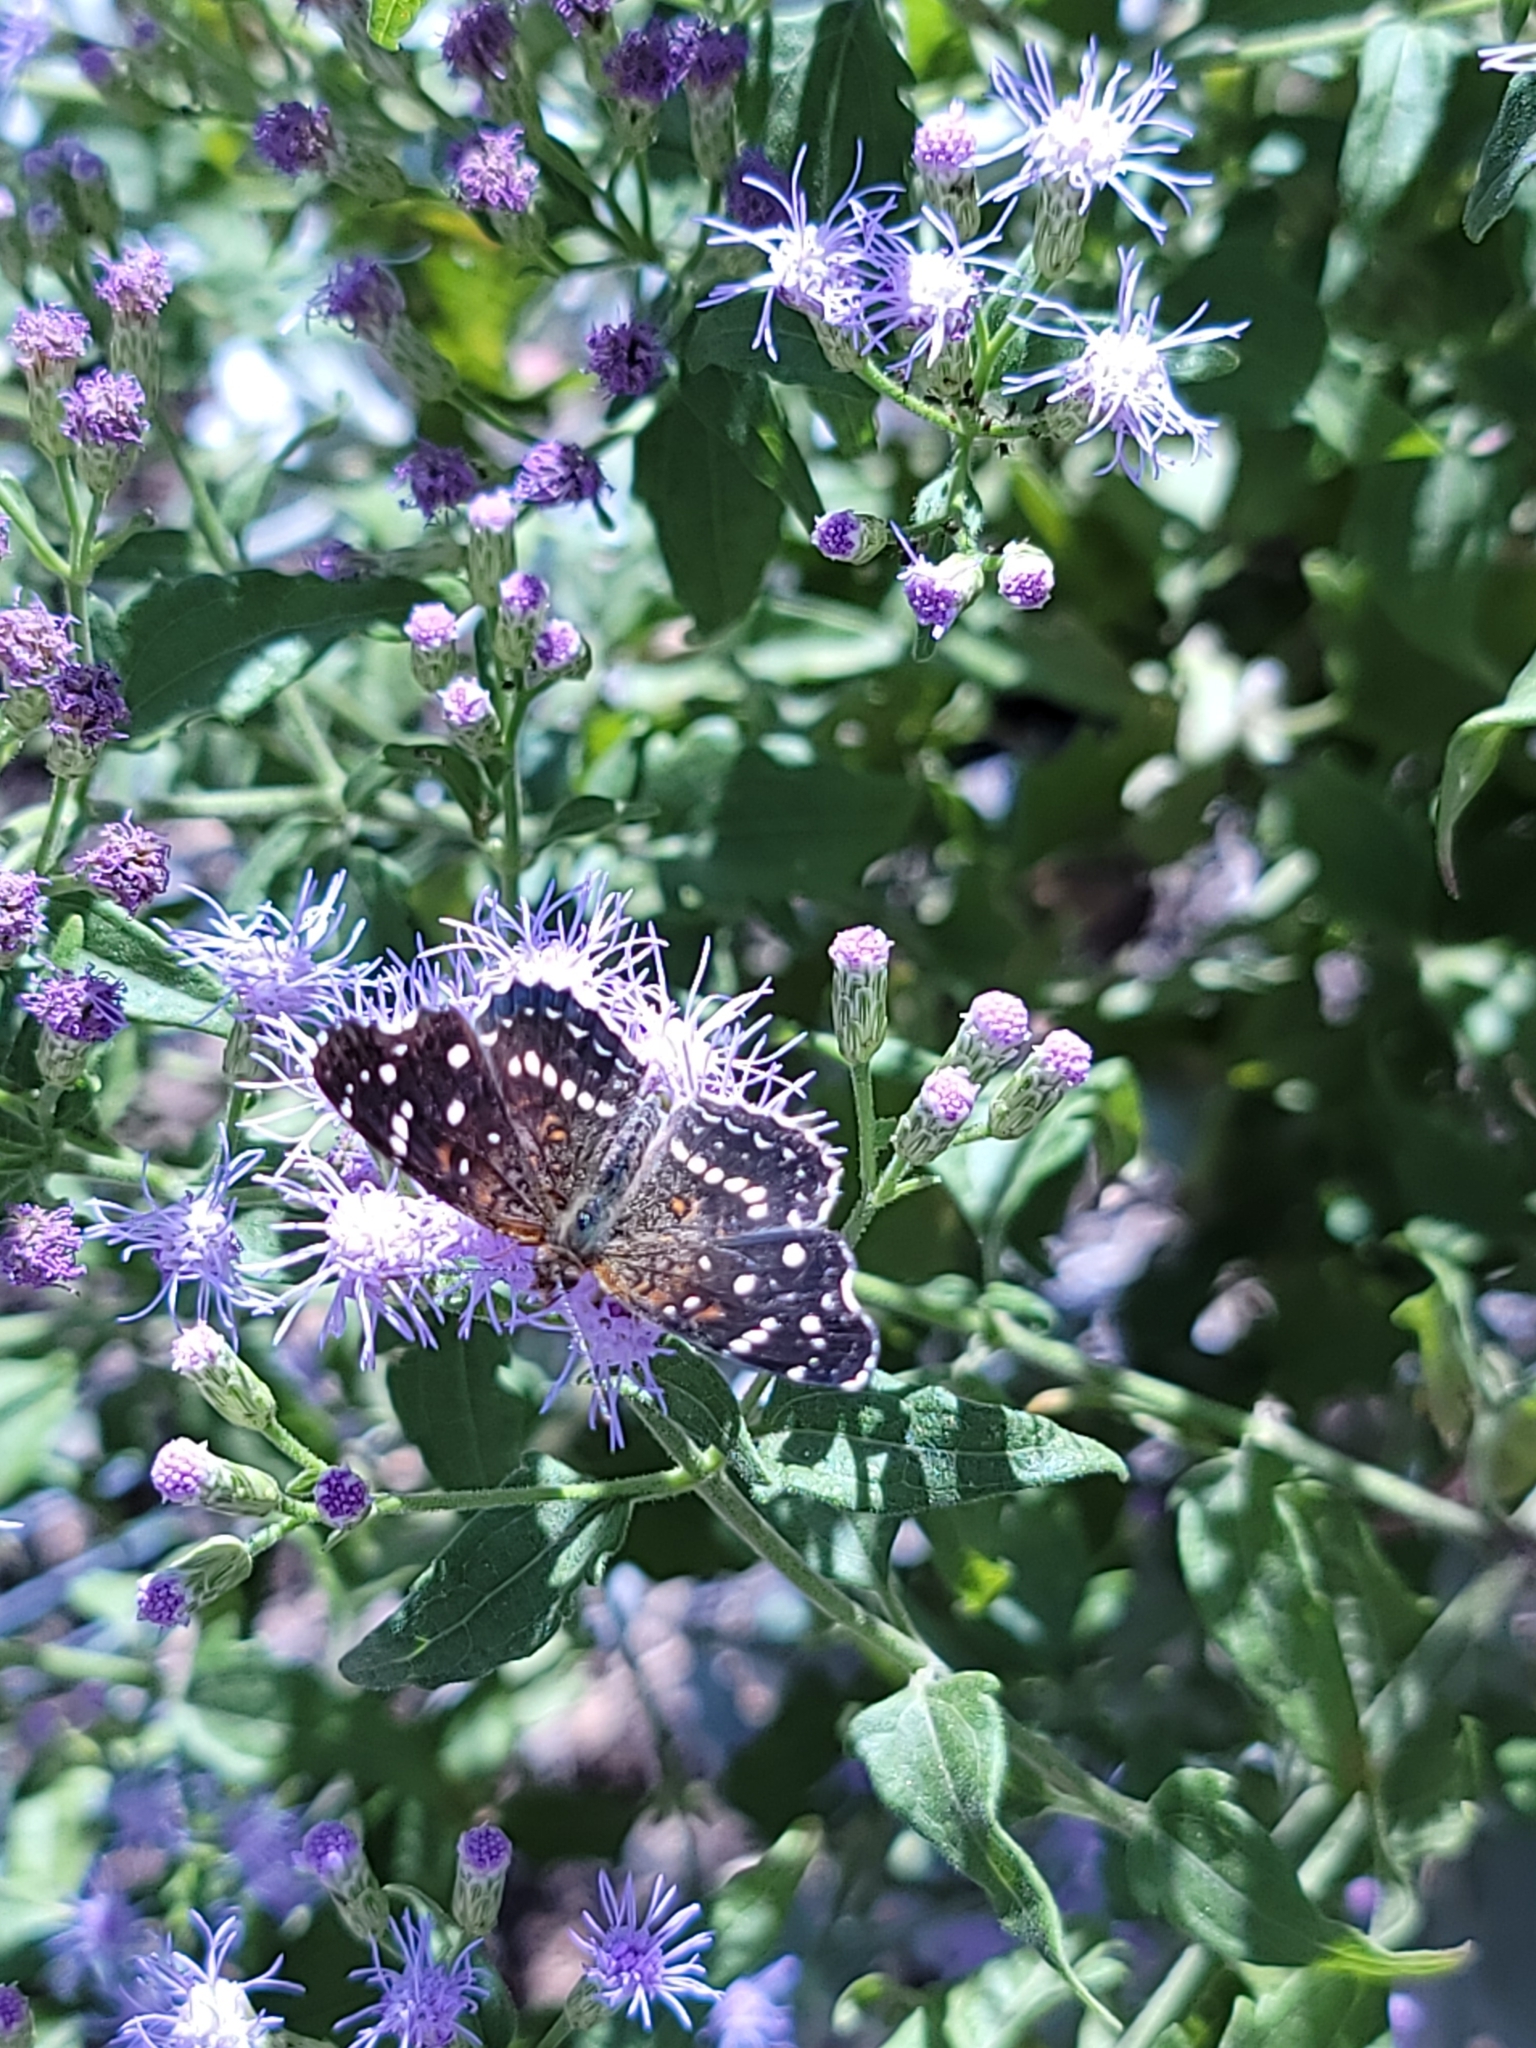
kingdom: Animalia
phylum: Arthropoda
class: Insecta
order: Lepidoptera
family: Nymphalidae
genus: Anthanassa
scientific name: Anthanassa texana
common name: Texan crescent
